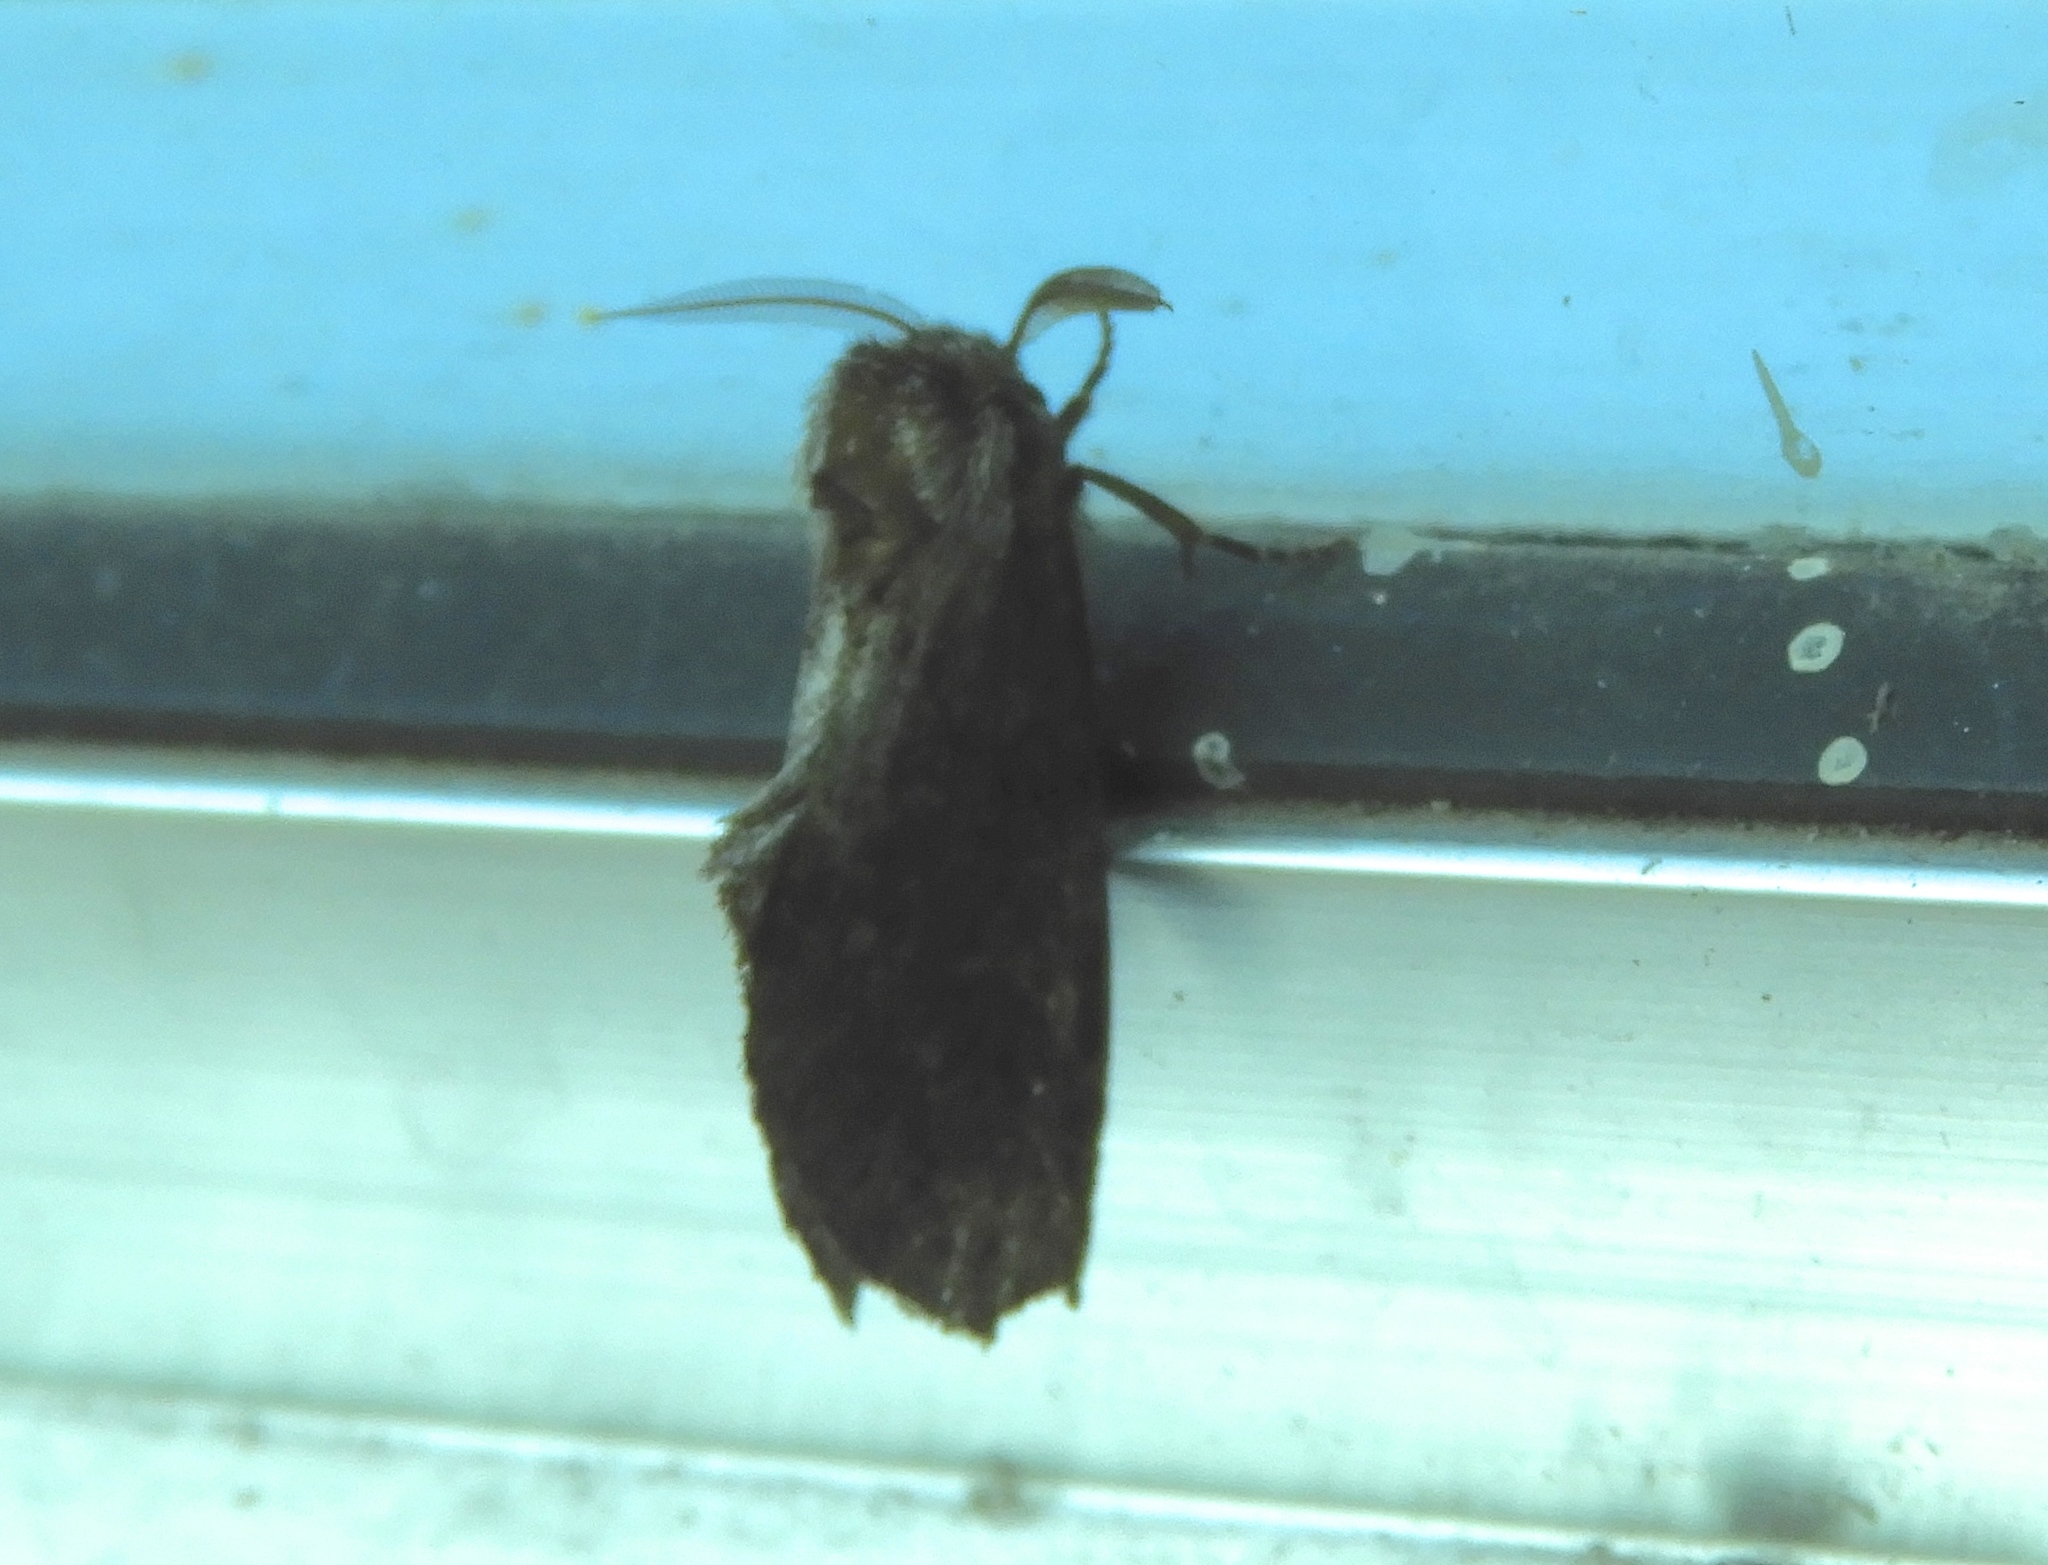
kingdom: Animalia
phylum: Arthropoda
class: Insecta
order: Lepidoptera
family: Notodontidae
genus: Cargida
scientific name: Cargida pyrrha
